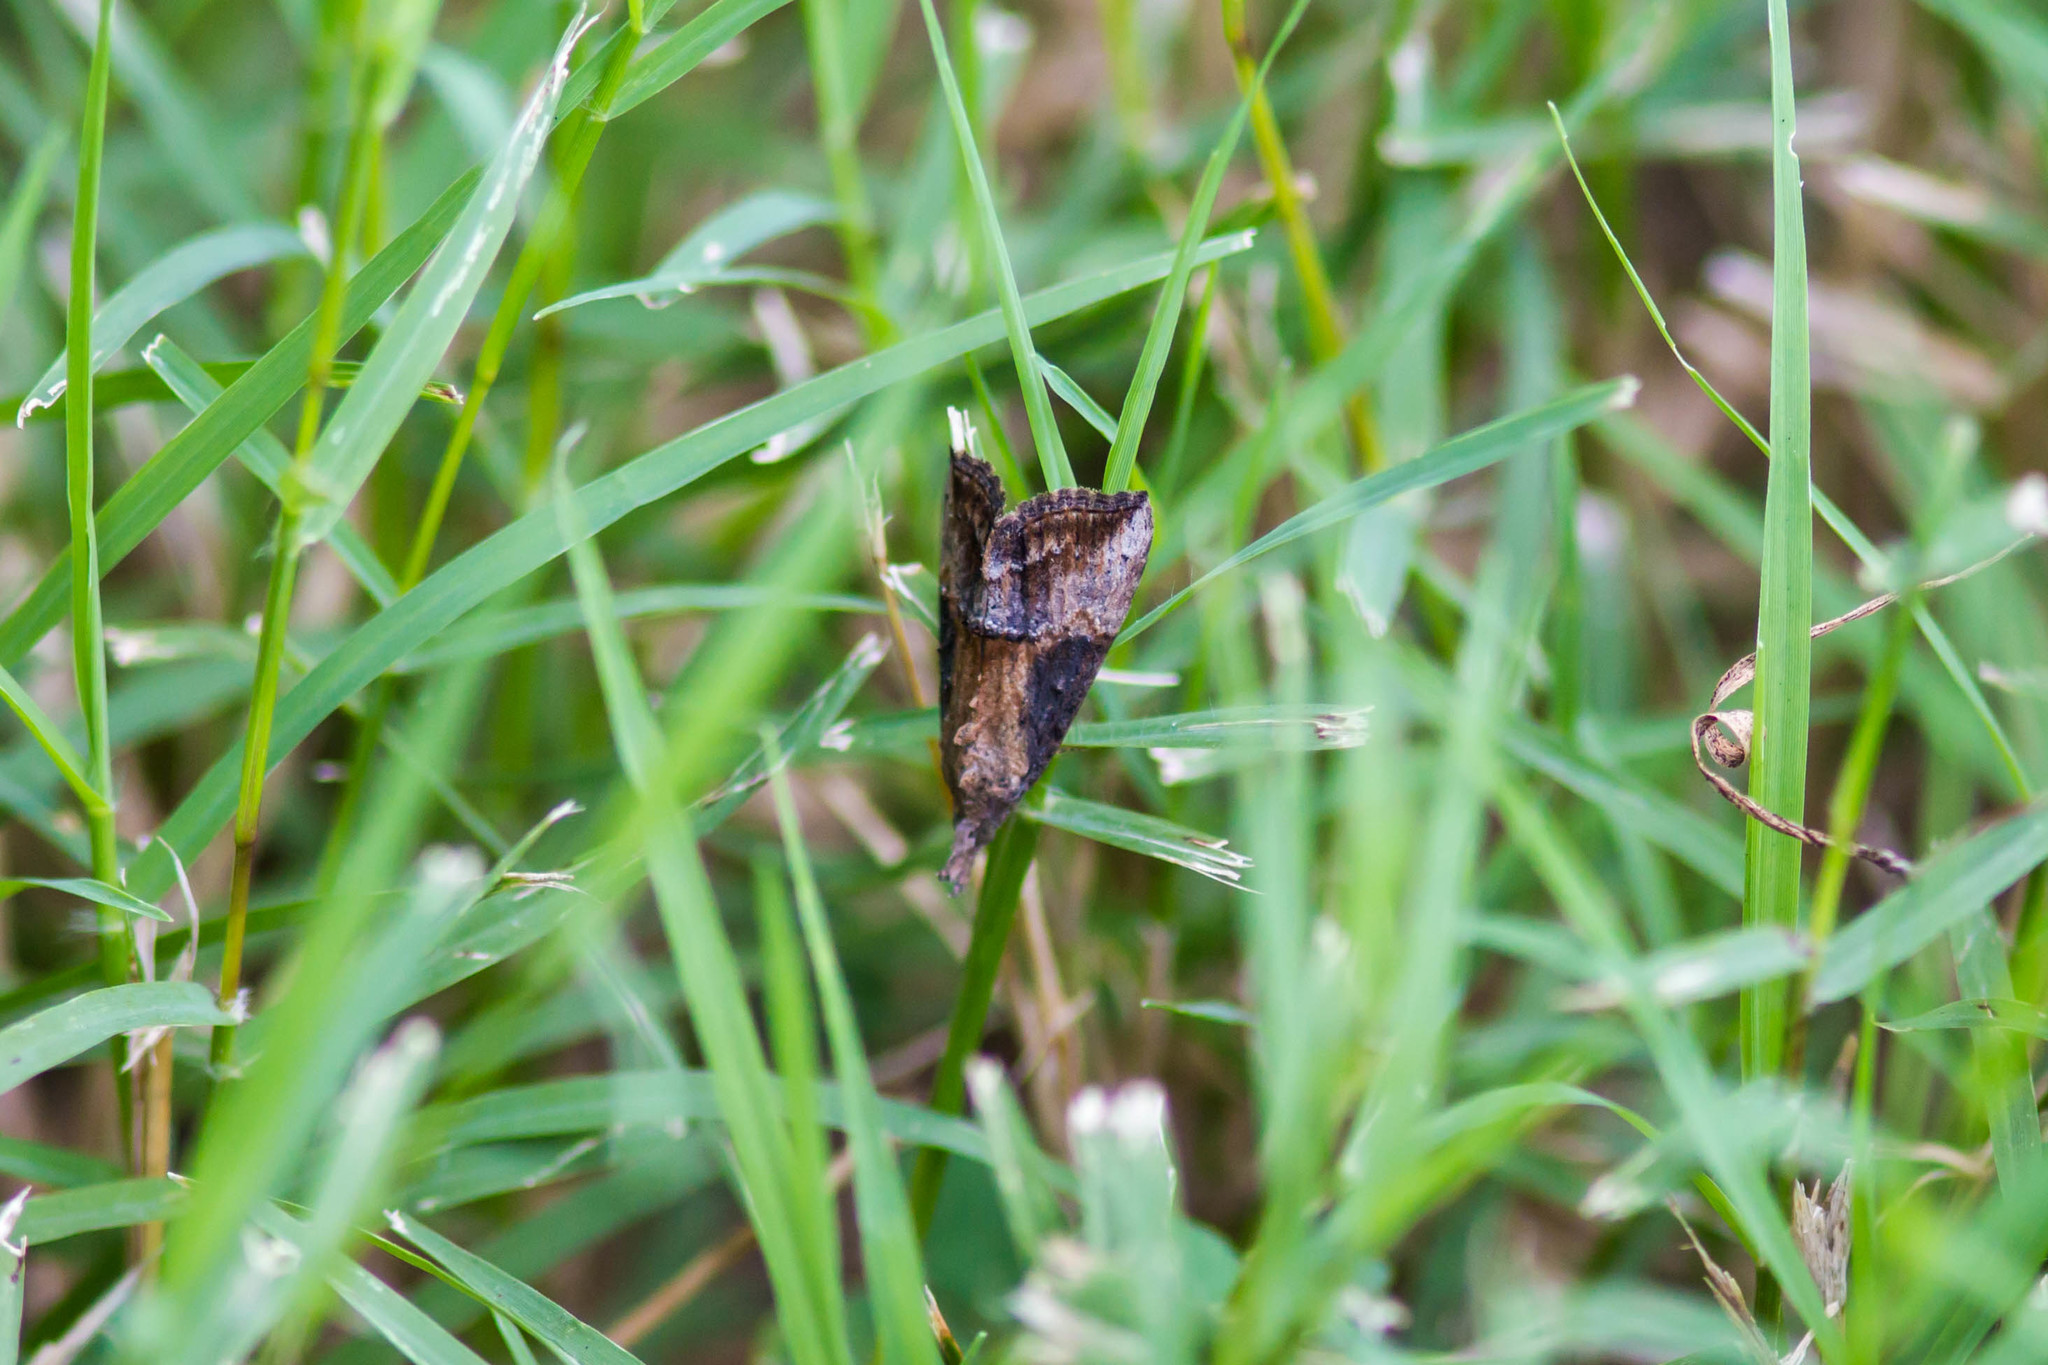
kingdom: Animalia
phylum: Arthropoda
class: Insecta
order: Lepidoptera
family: Erebidae
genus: Hypena
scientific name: Hypena scabra
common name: Green cloverworm
